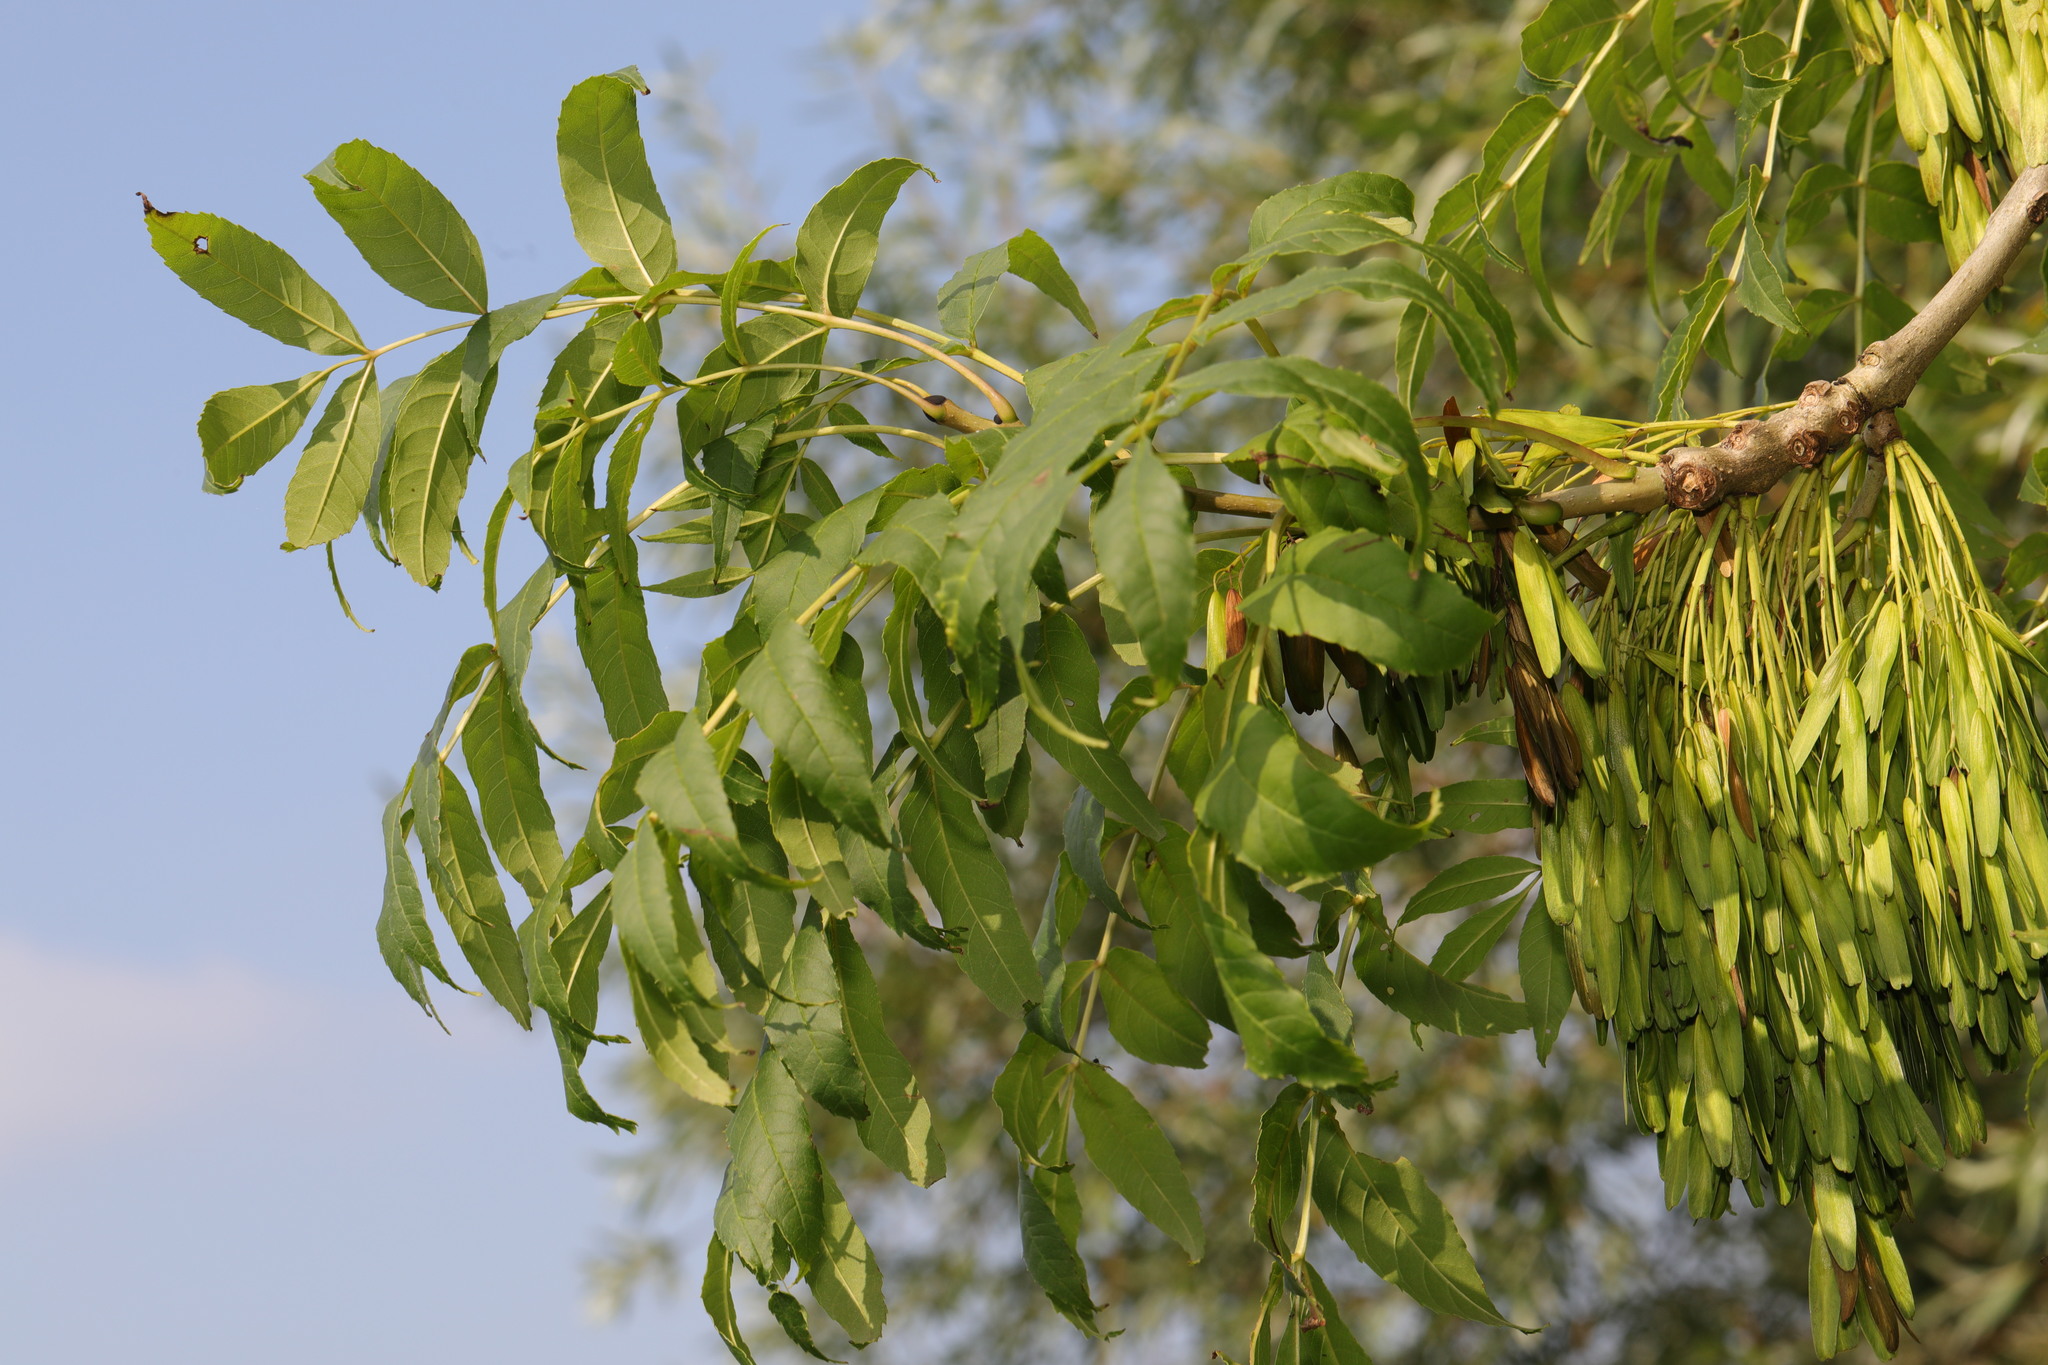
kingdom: Plantae
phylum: Tracheophyta
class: Magnoliopsida
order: Lamiales
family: Oleaceae
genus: Fraxinus
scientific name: Fraxinus excelsior
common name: European ash
